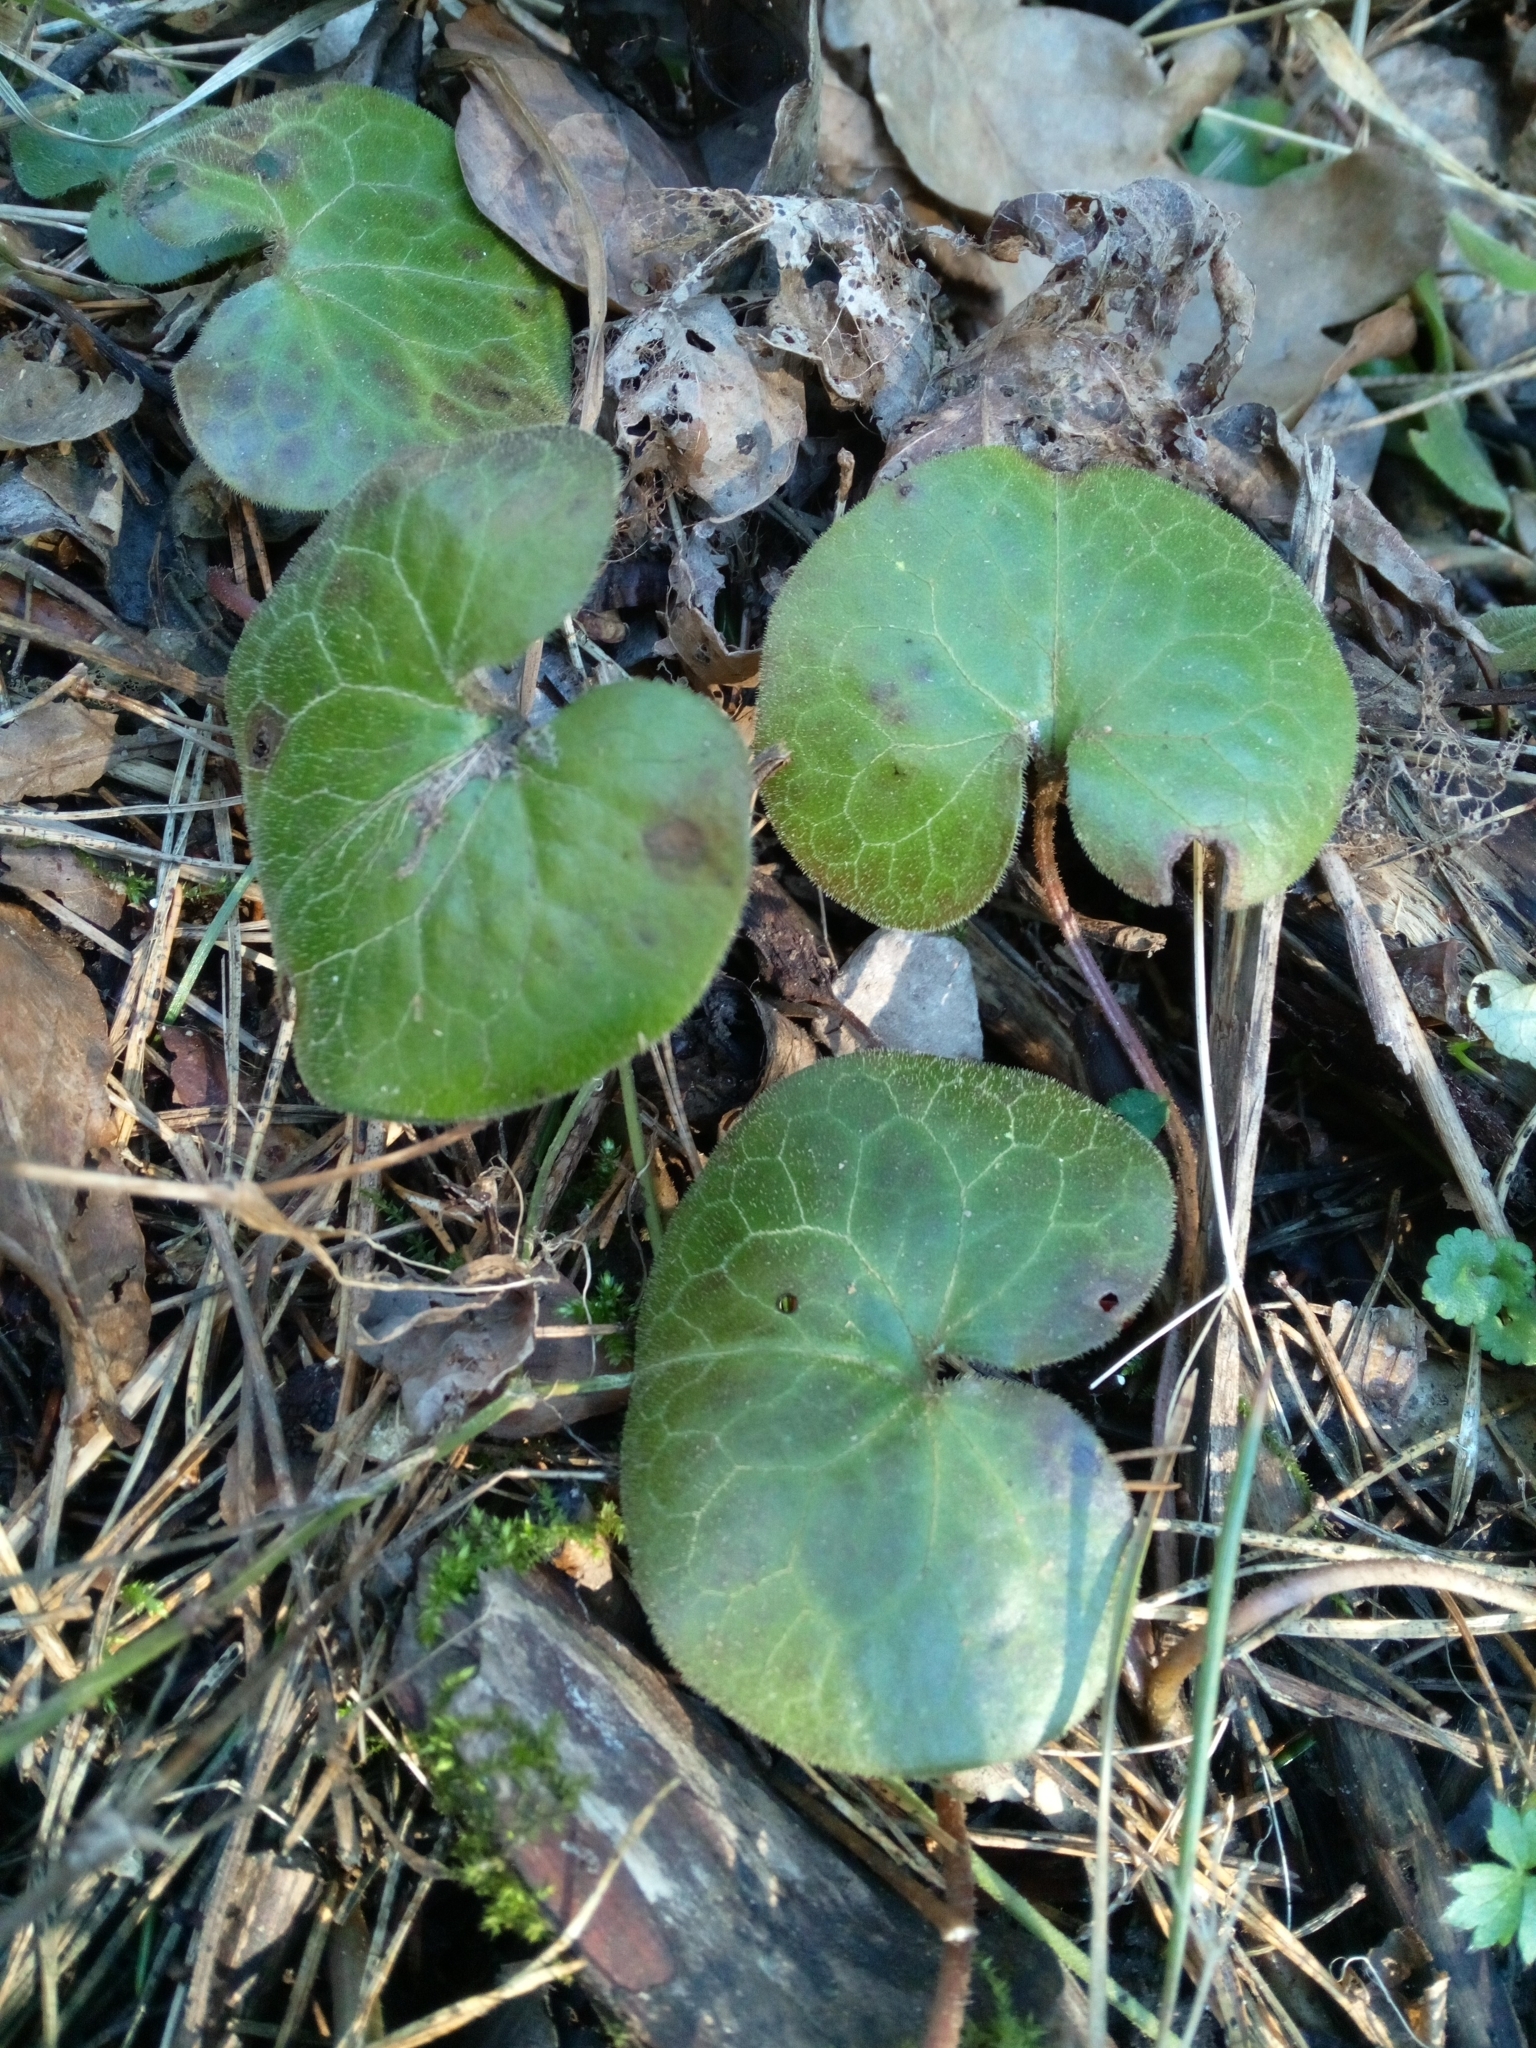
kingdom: Plantae
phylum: Tracheophyta
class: Magnoliopsida
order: Piperales
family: Aristolochiaceae
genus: Asarum
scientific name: Asarum europaeum
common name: Asarabacca
